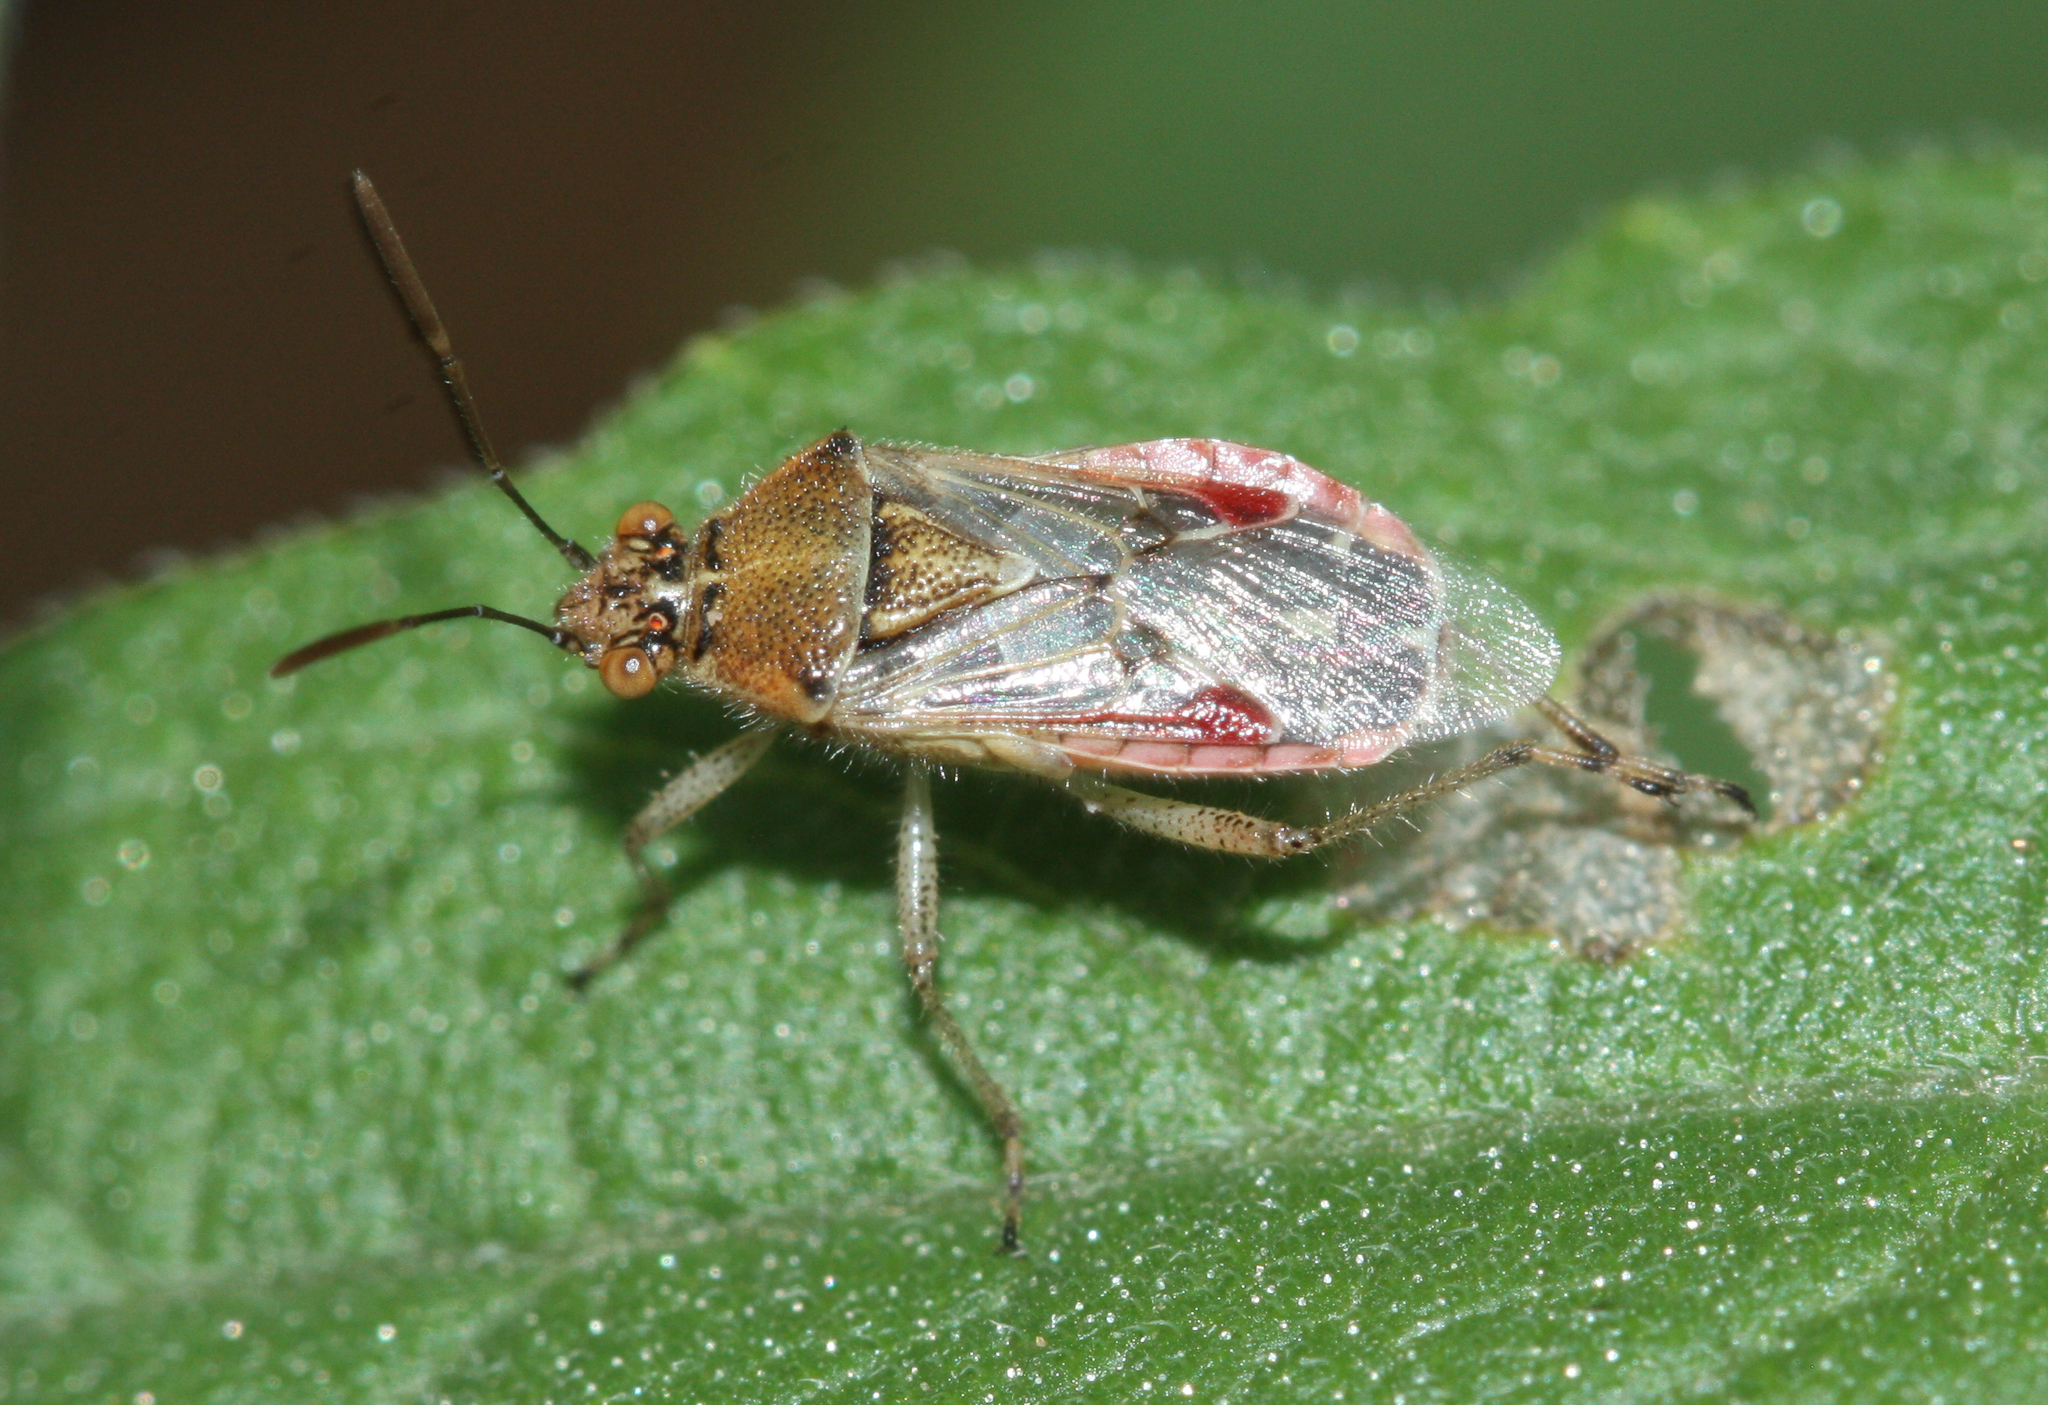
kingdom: Animalia
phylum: Arthropoda
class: Insecta
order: Hemiptera
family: Rhopalidae
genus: Liorhyssus
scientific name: Liorhyssus hyalinus
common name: Scentless plant bug
